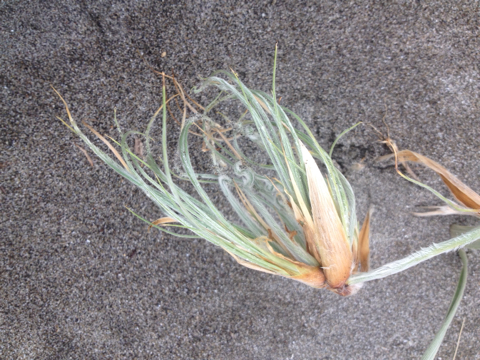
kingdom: Plantae
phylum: Tracheophyta
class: Liliopsida
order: Poales
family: Poaceae
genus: Spinifex
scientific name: Spinifex sericeus
